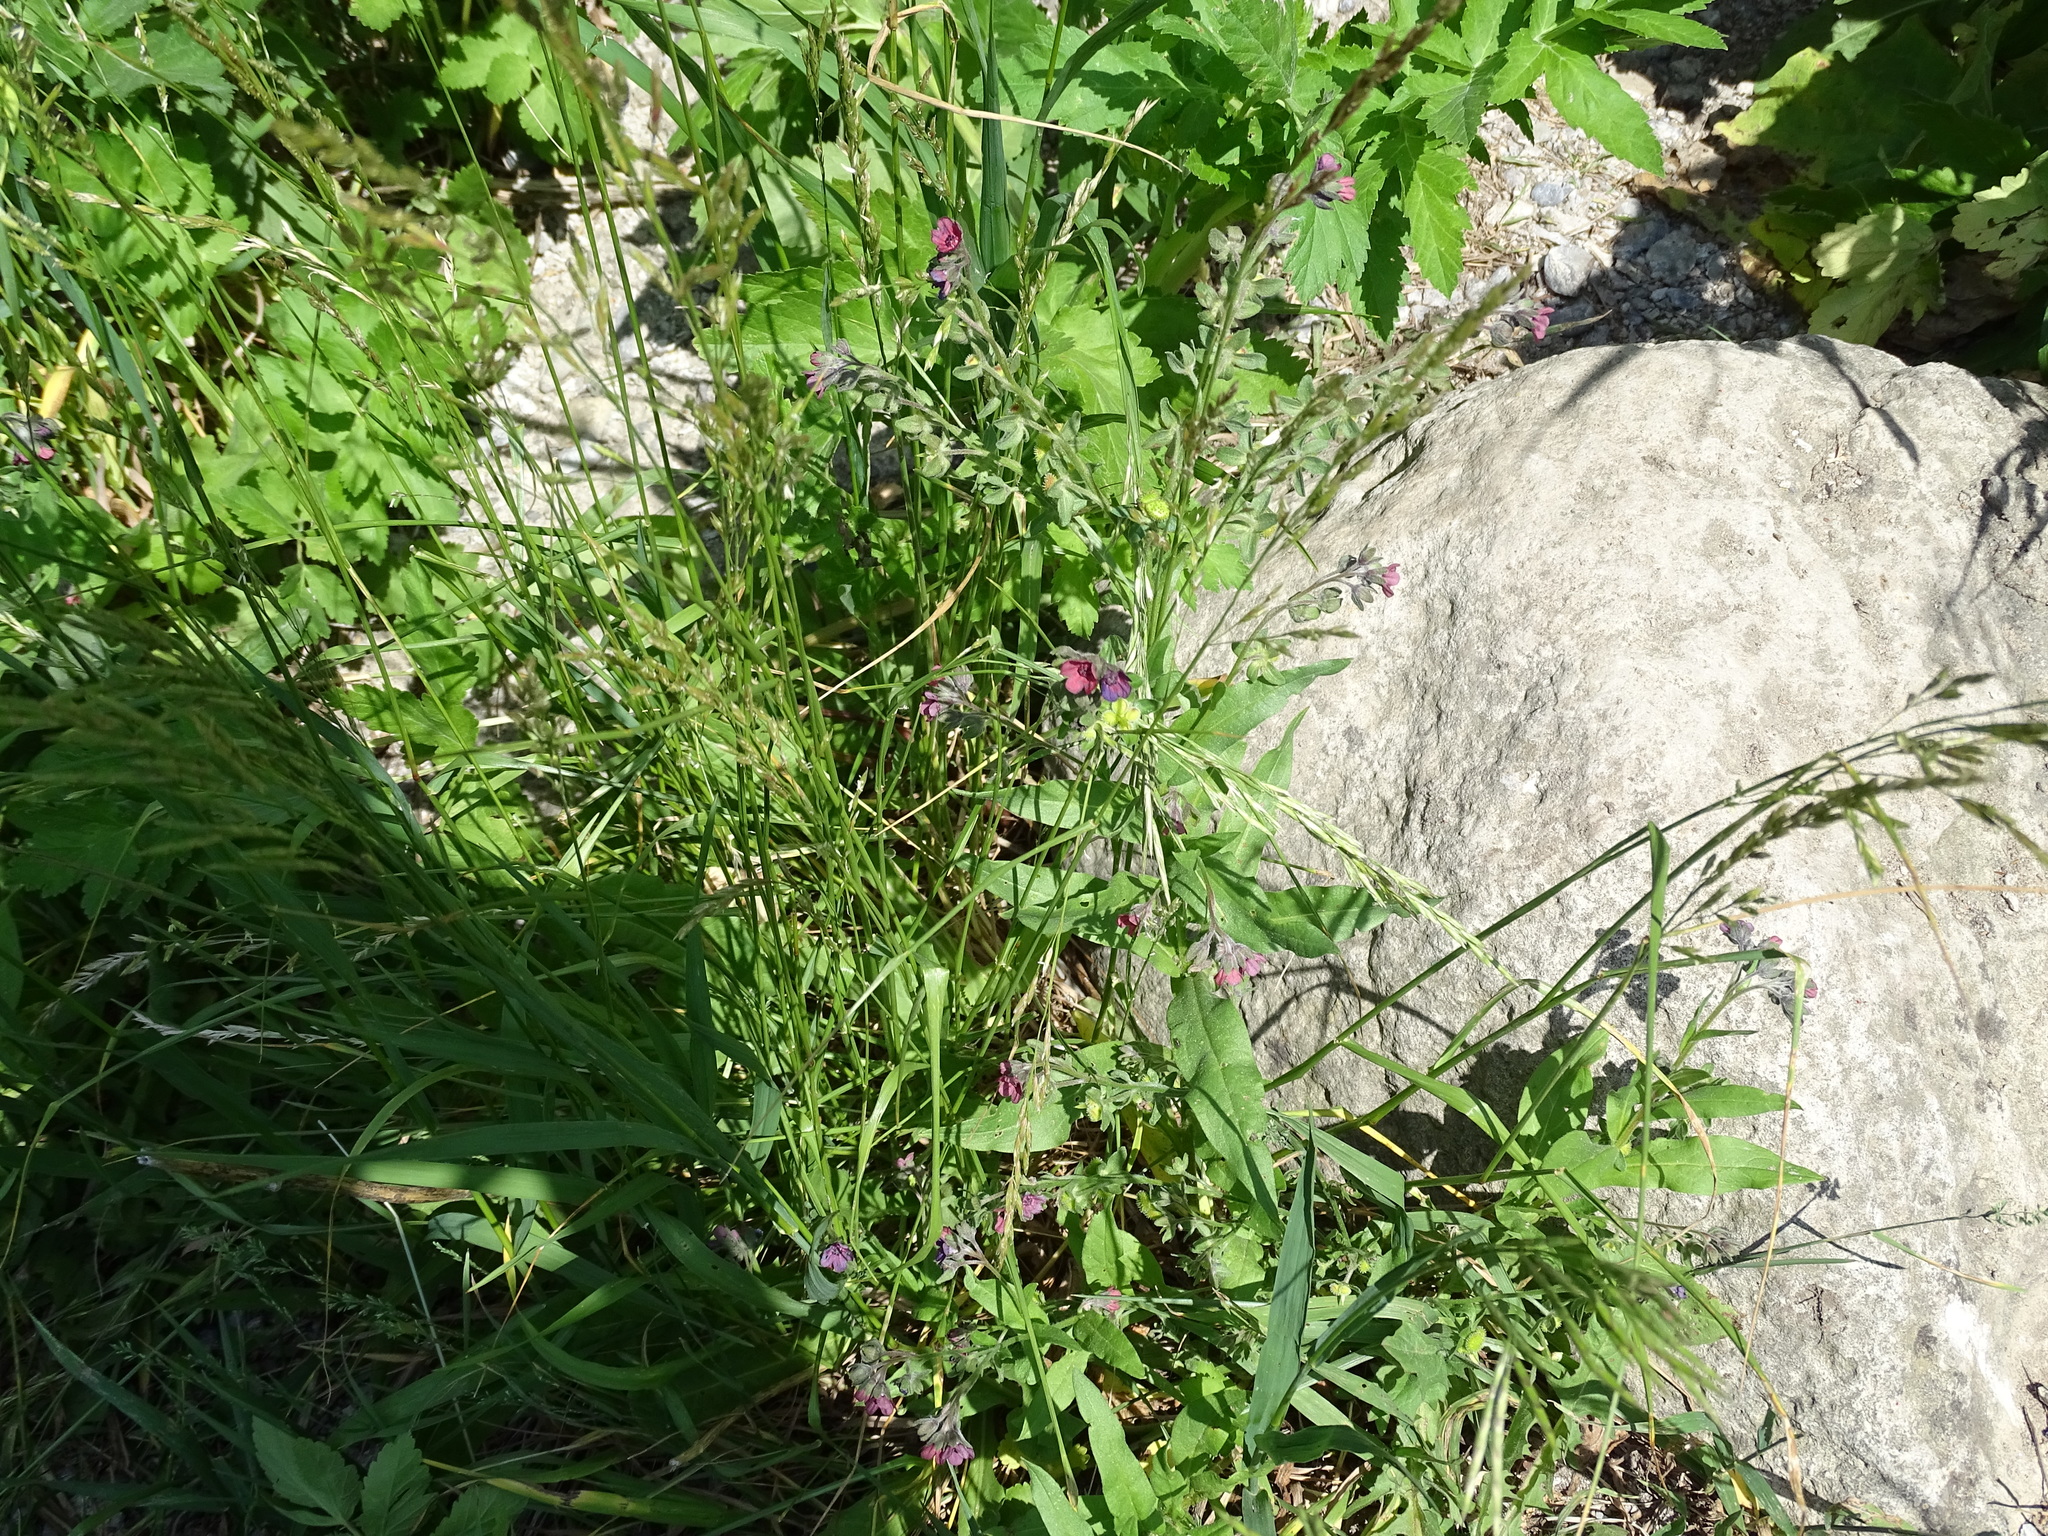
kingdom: Plantae
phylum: Tracheophyta
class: Magnoliopsida
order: Boraginales
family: Boraginaceae
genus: Cynoglossum
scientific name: Cynoglossum officinale
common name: Hound's-tongue
